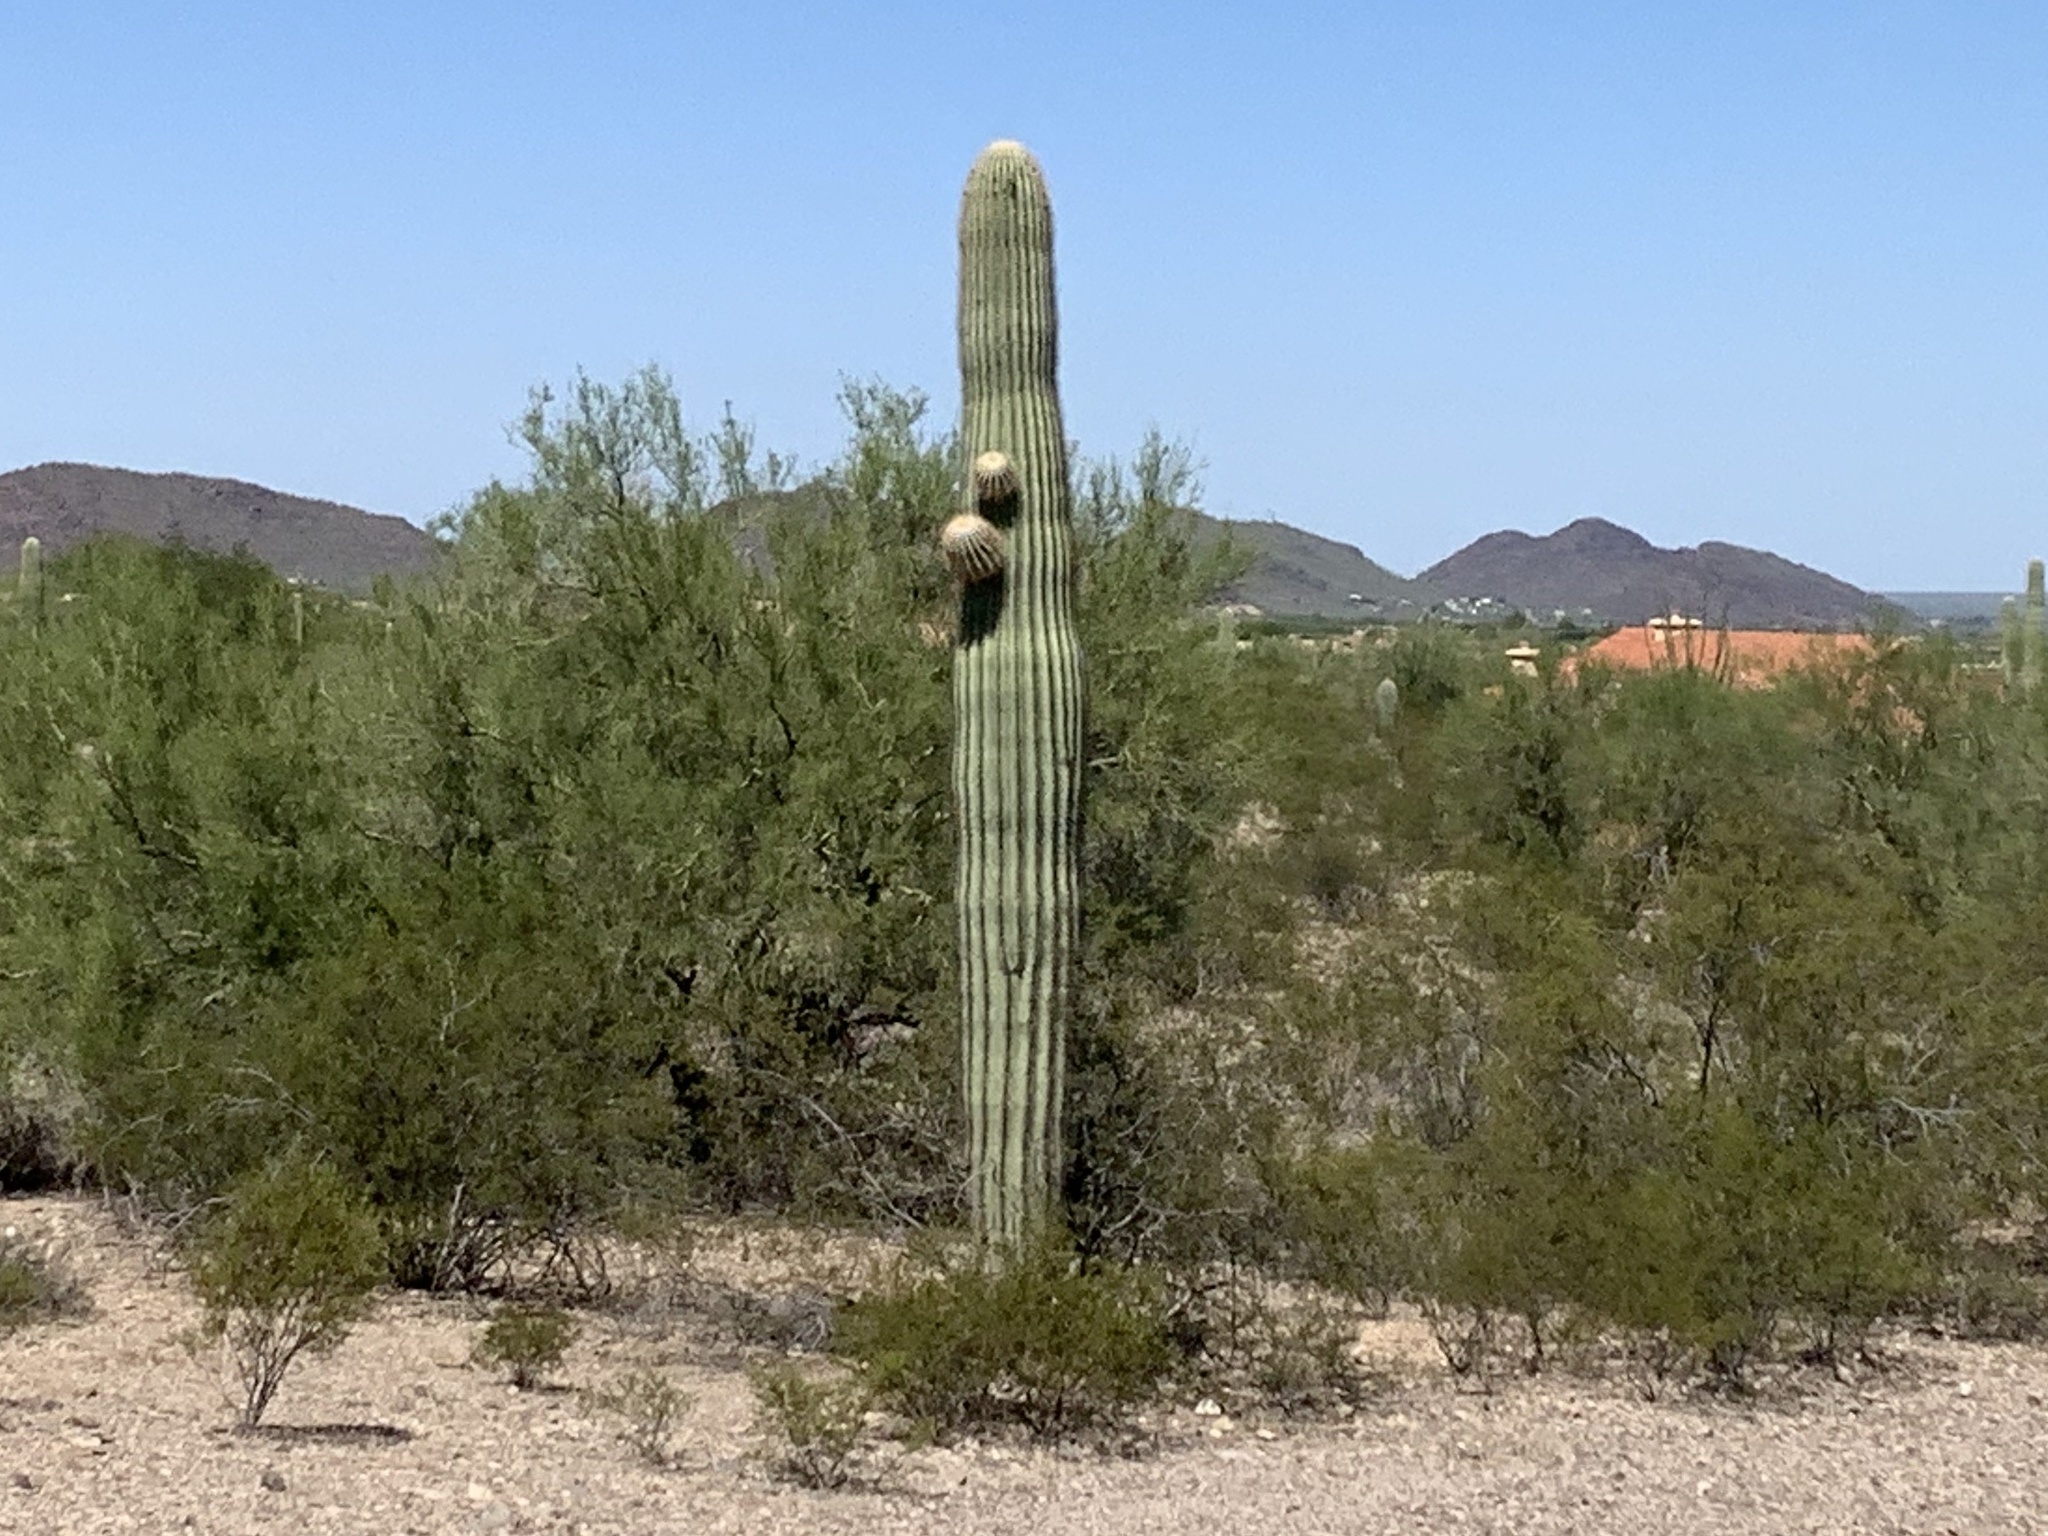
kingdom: Plantae
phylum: Tracheophyta
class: Magnoliopsida
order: Caryophyllales
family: Cactaceae
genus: Carnegiea
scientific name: Carnegiea gigantea
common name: Saguaro
